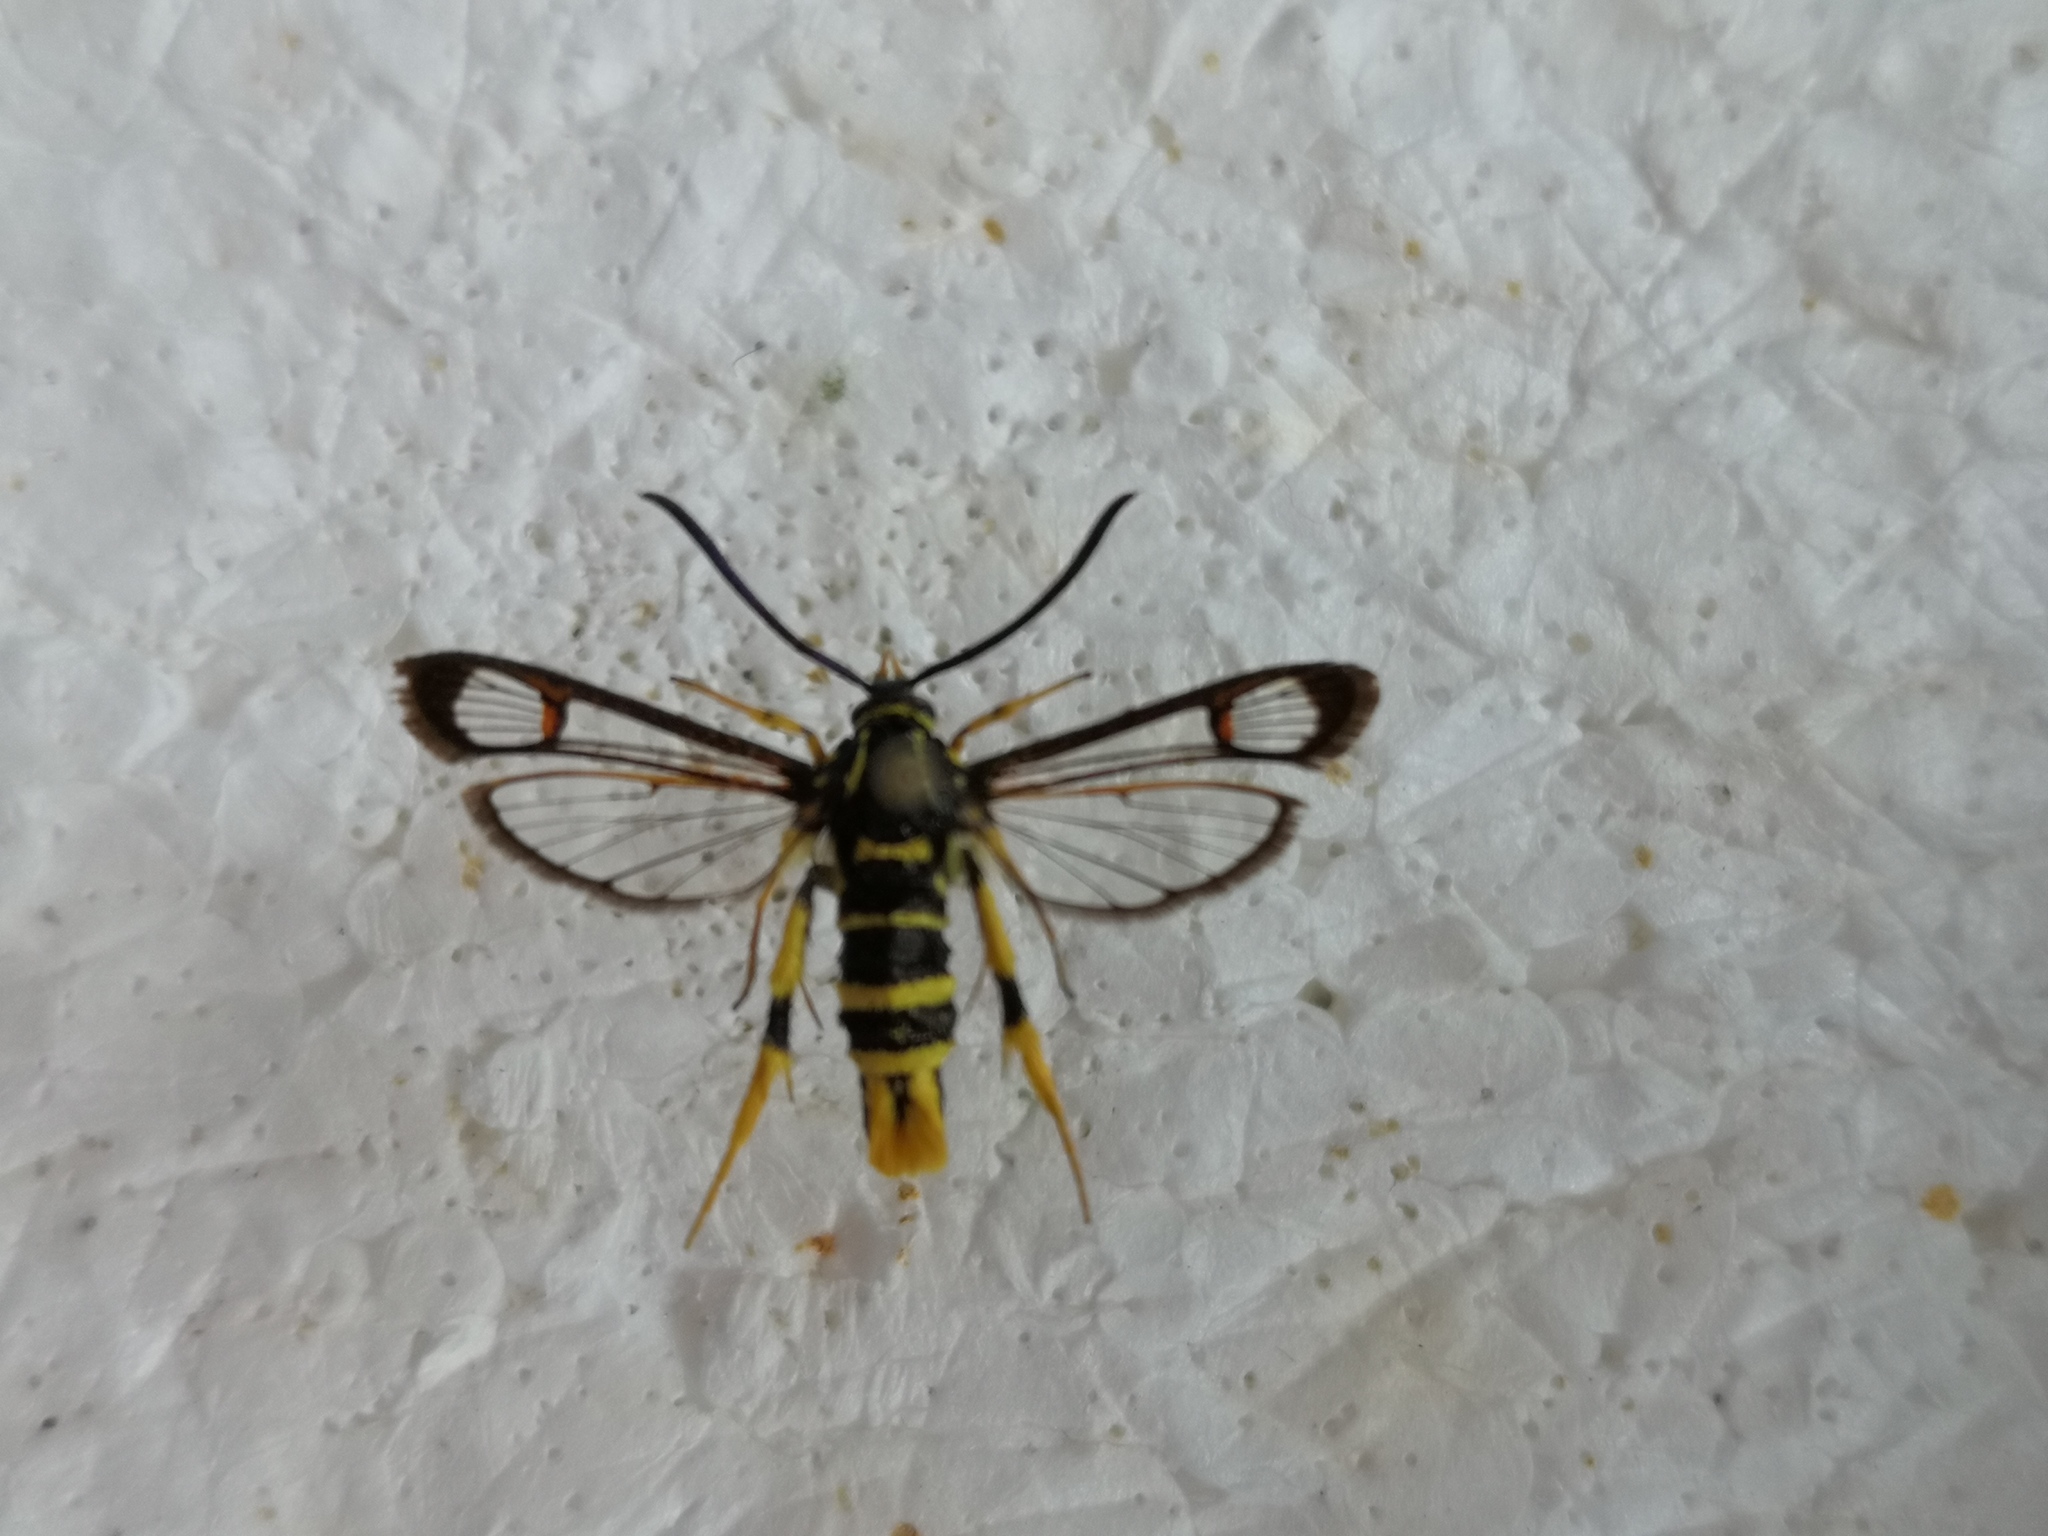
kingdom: Animalia
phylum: Arthropoda
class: Insecta
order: Lepidoptera
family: Sesiidae
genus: Synanthedon
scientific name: Synanthedon vespiformis
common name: Yellow-legged clearwing
